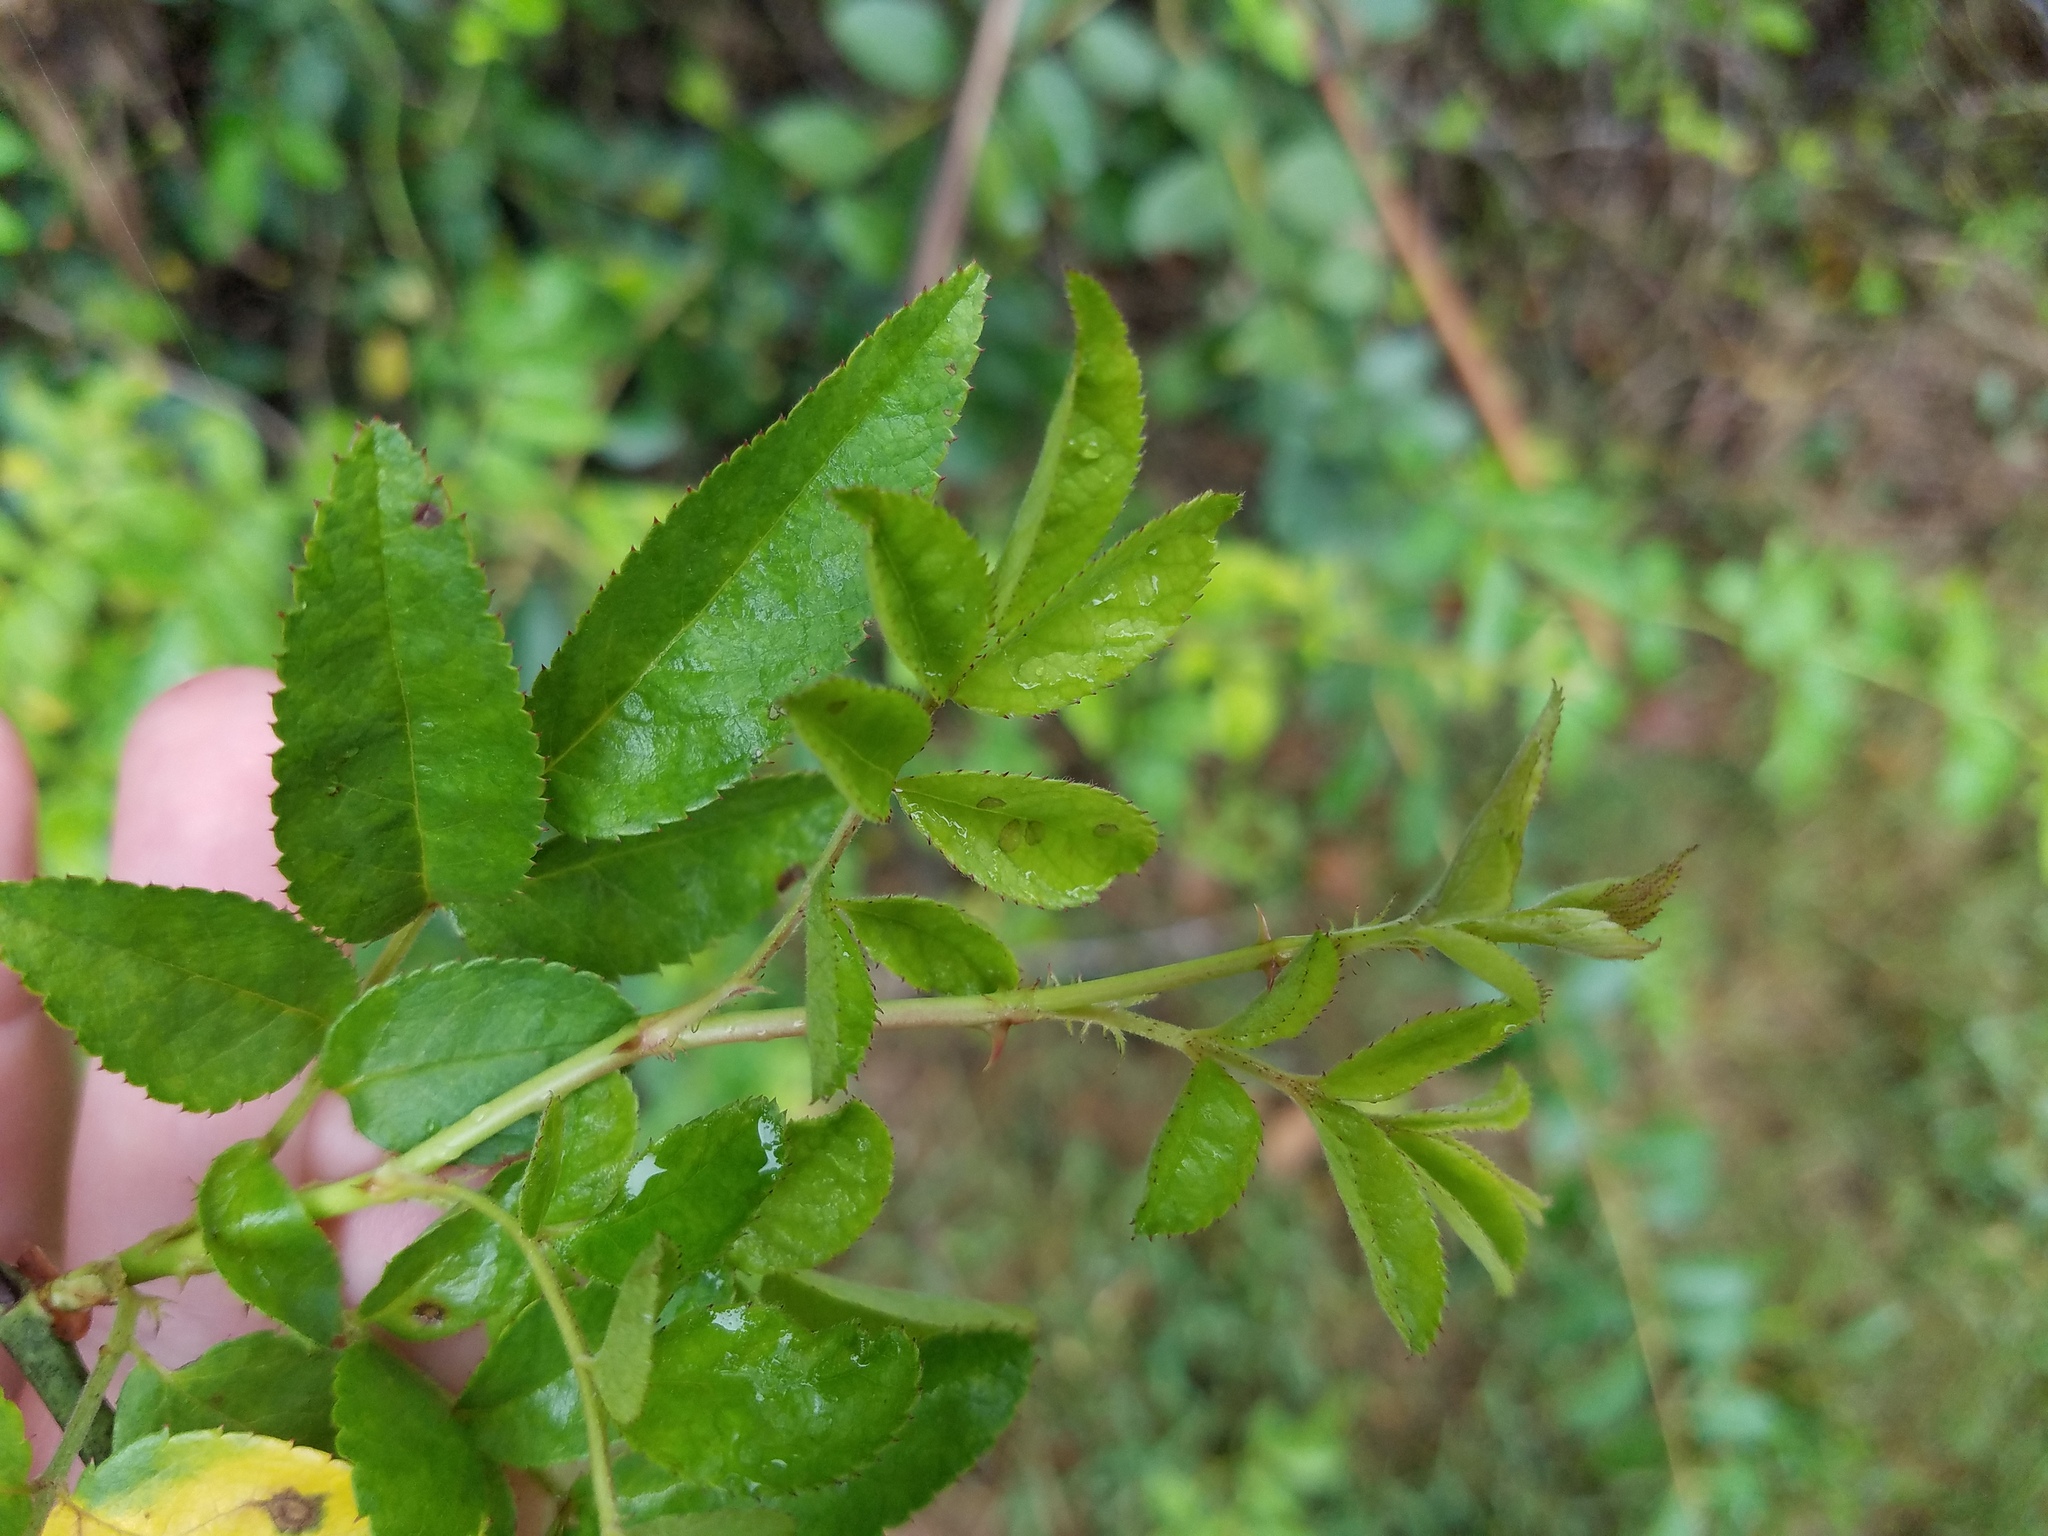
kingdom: Plantae
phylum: Tracheophyta
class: Magnoliopsida
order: Rosales
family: Rosaceae
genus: Rosa
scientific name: Rosa multiflora
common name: Multiflora rose
